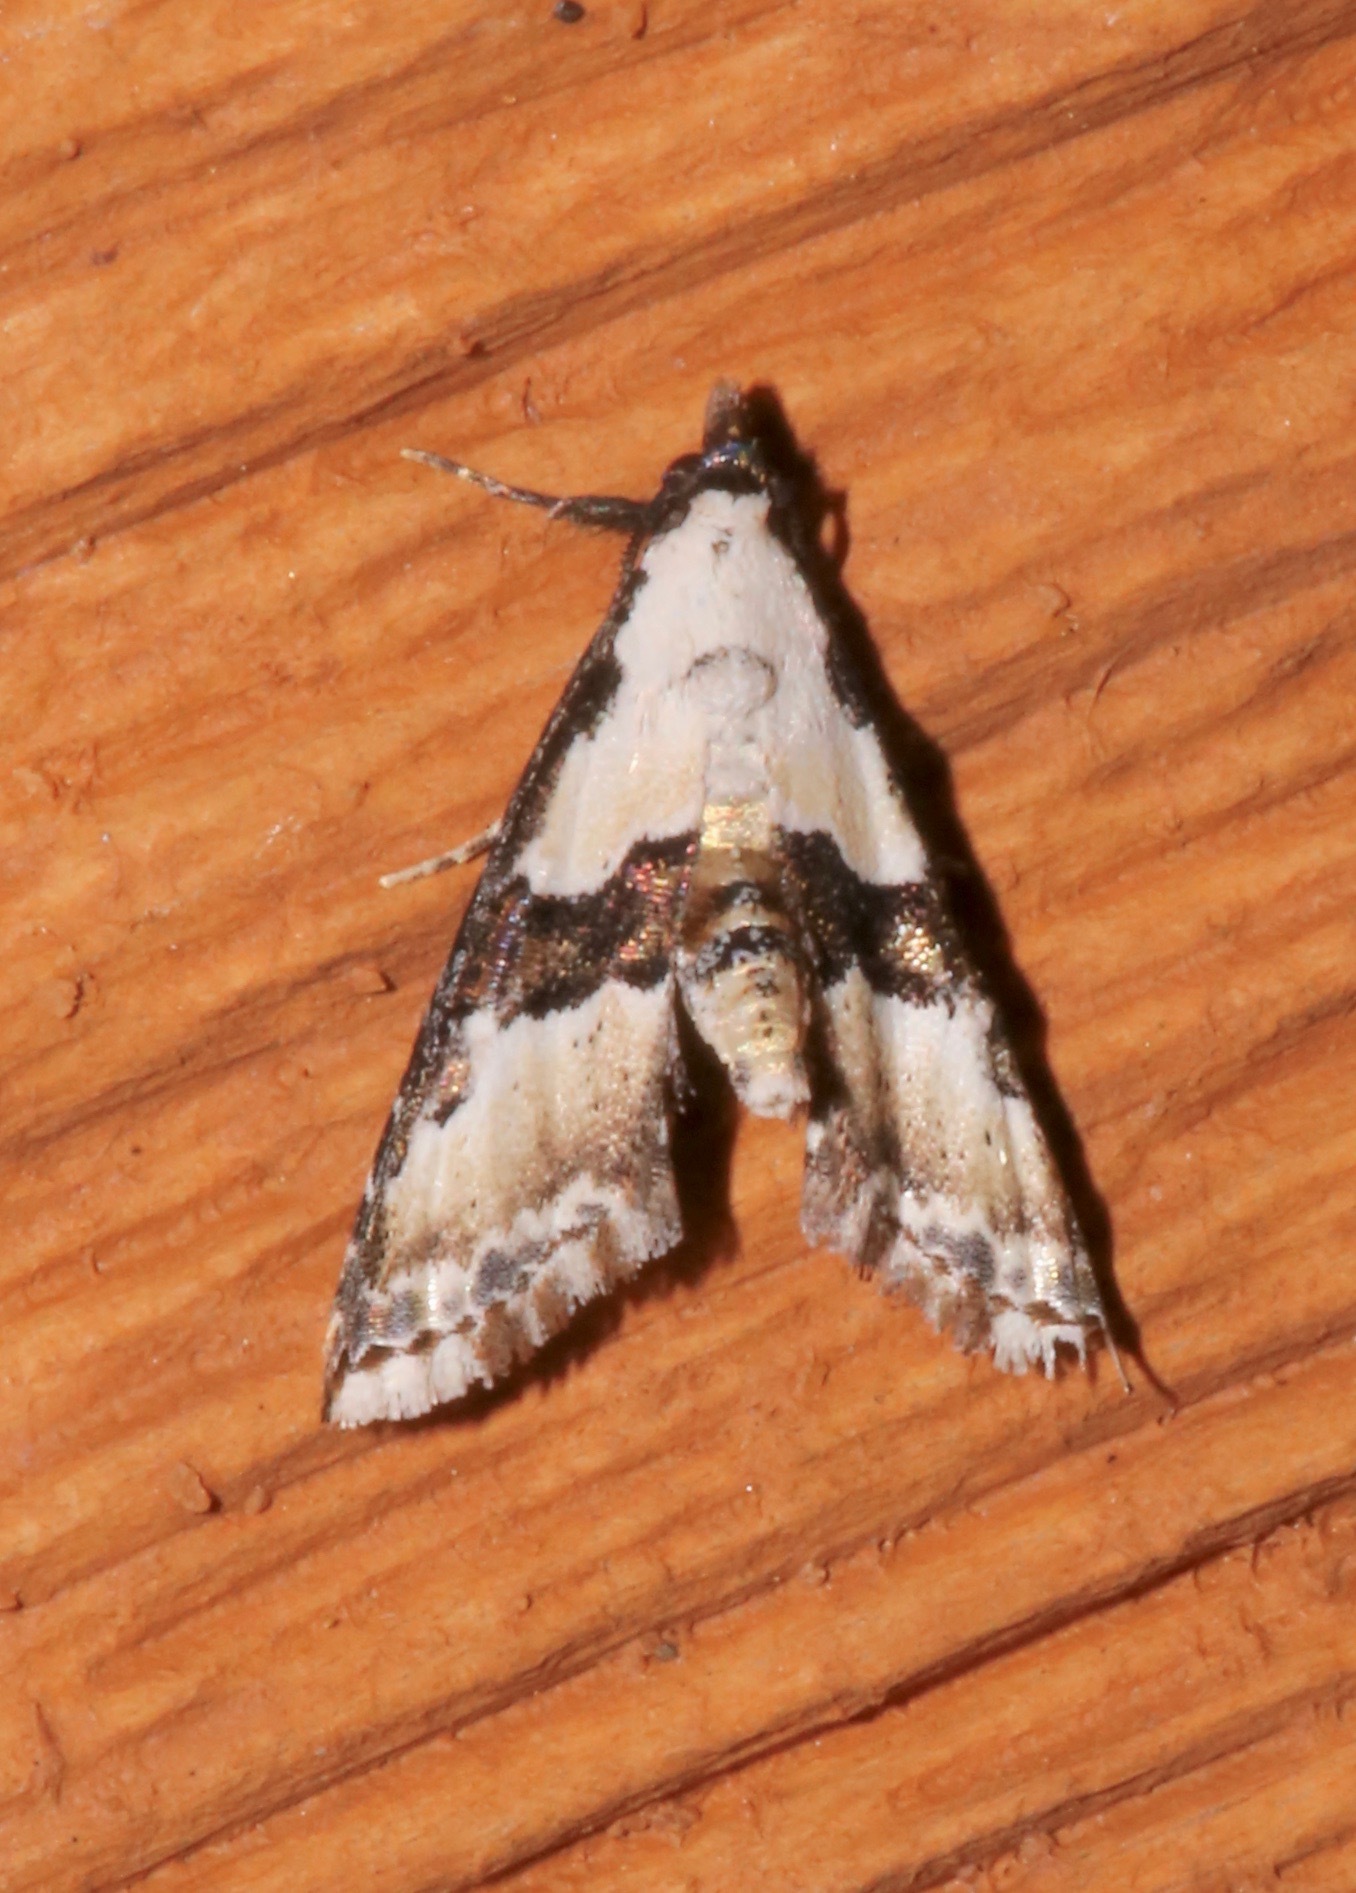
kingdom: Animalia
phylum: Arthropoda
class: Insecta
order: Lepidoptera
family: Noctuidae
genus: Nigetia
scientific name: Nigetia formosalis
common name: Thin-winged owlet
